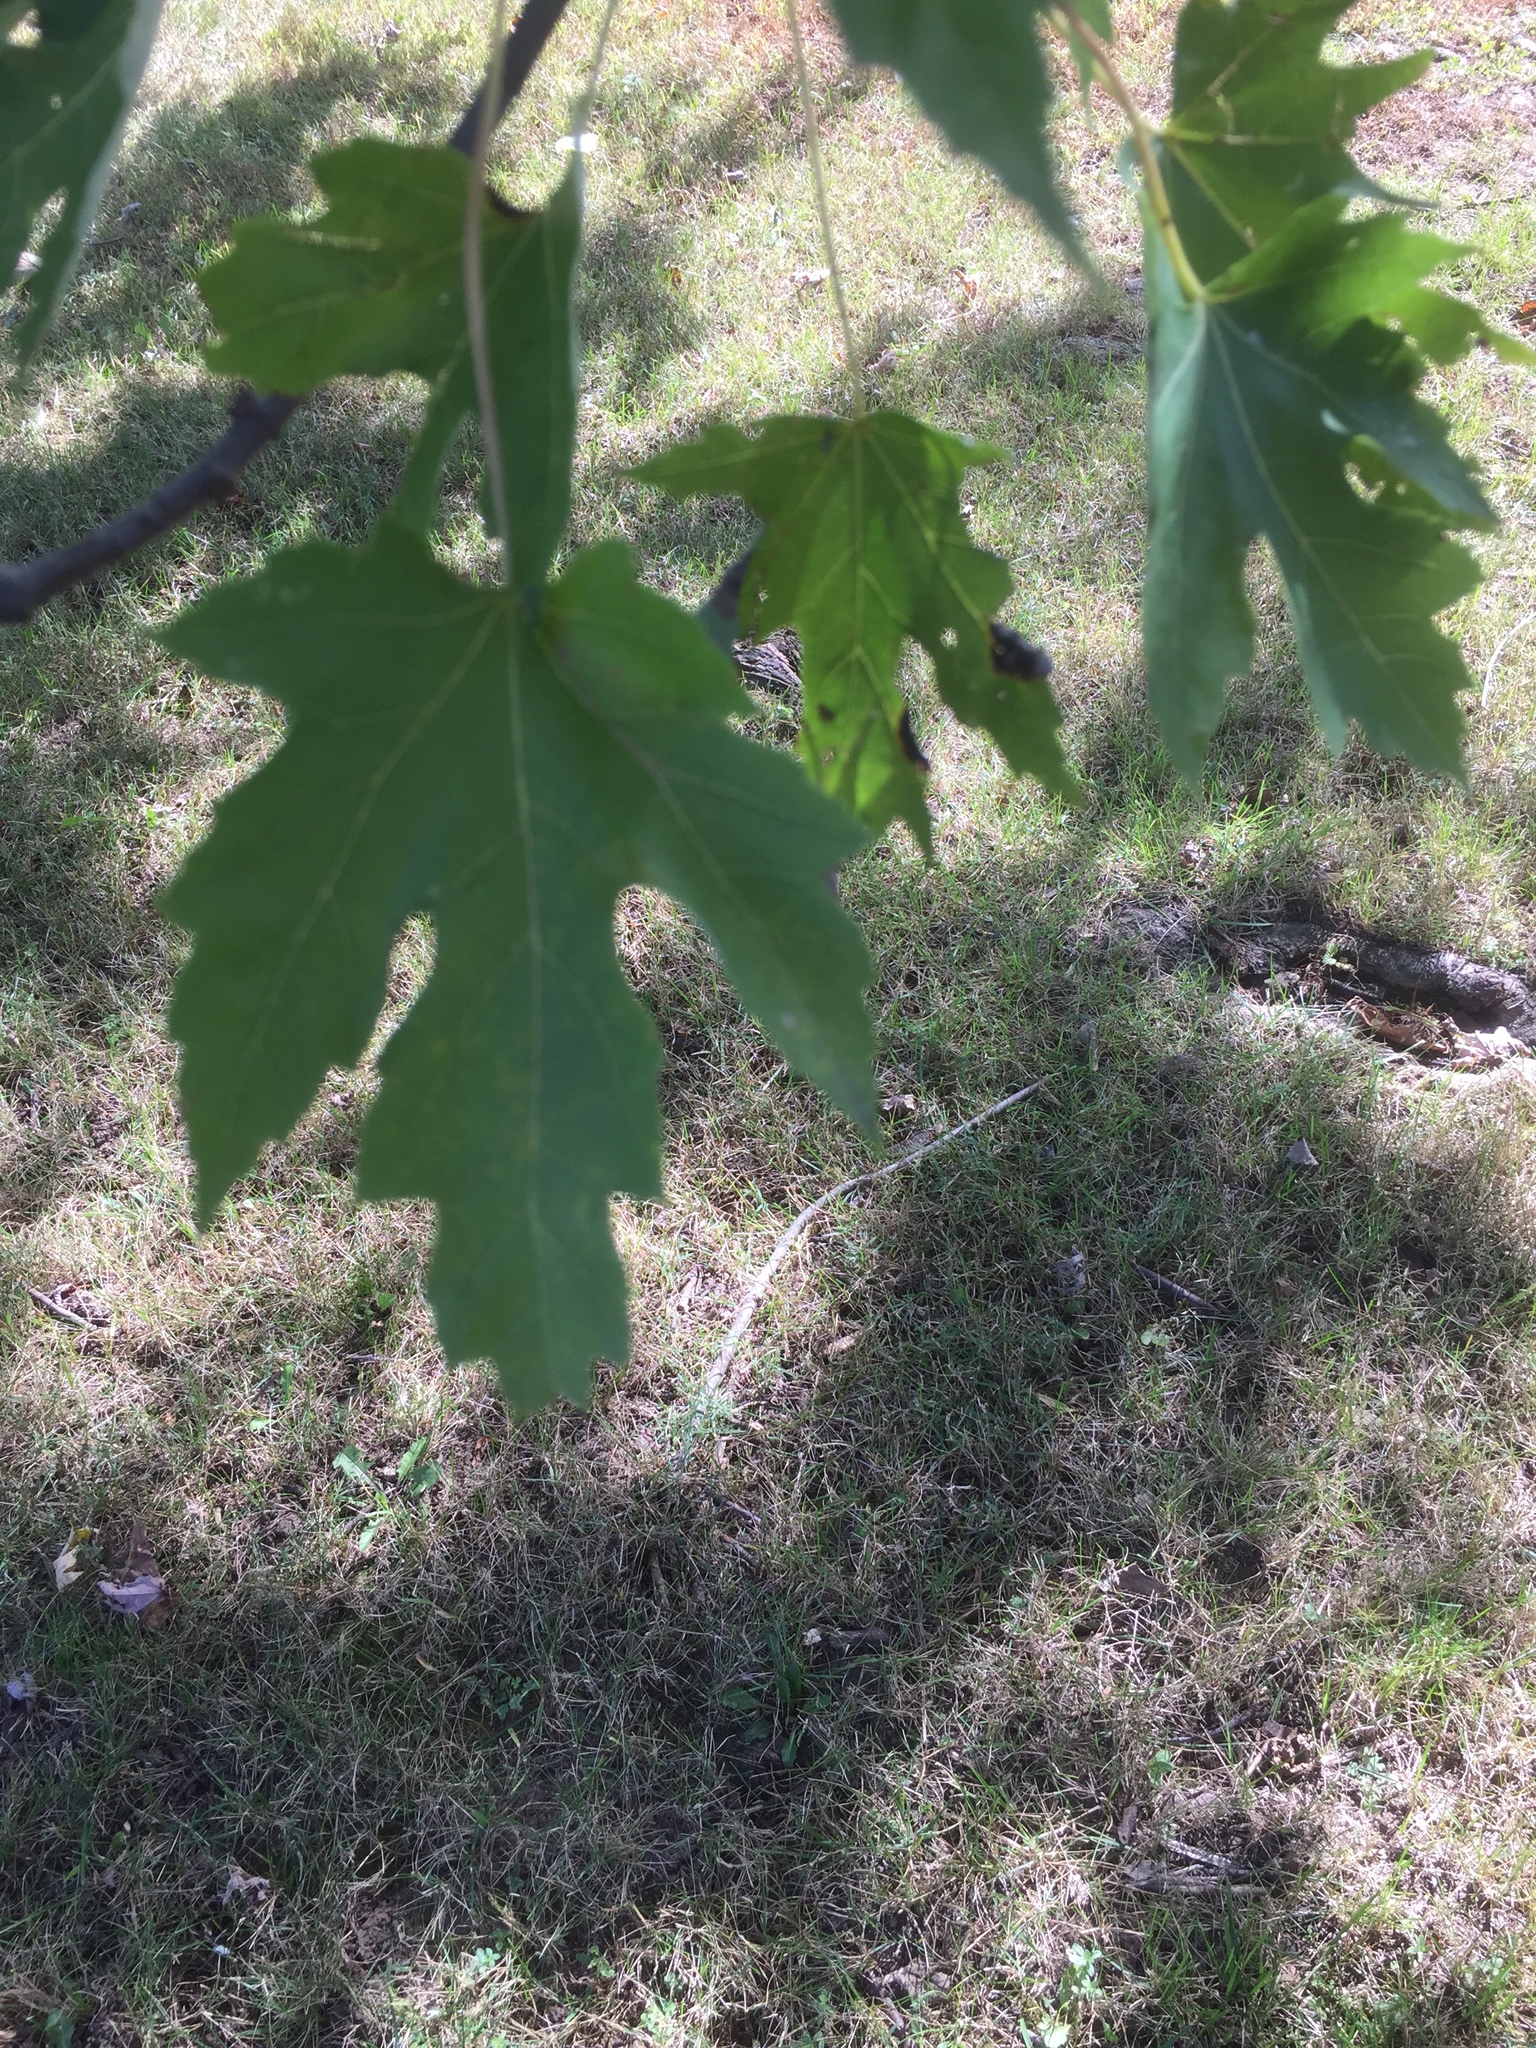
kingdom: Plantae
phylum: Tracheophyta
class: Magnoliopsida
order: Sapindales
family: Sapindaceae
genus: Acer
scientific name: Acer saccharinum
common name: Silver maple
